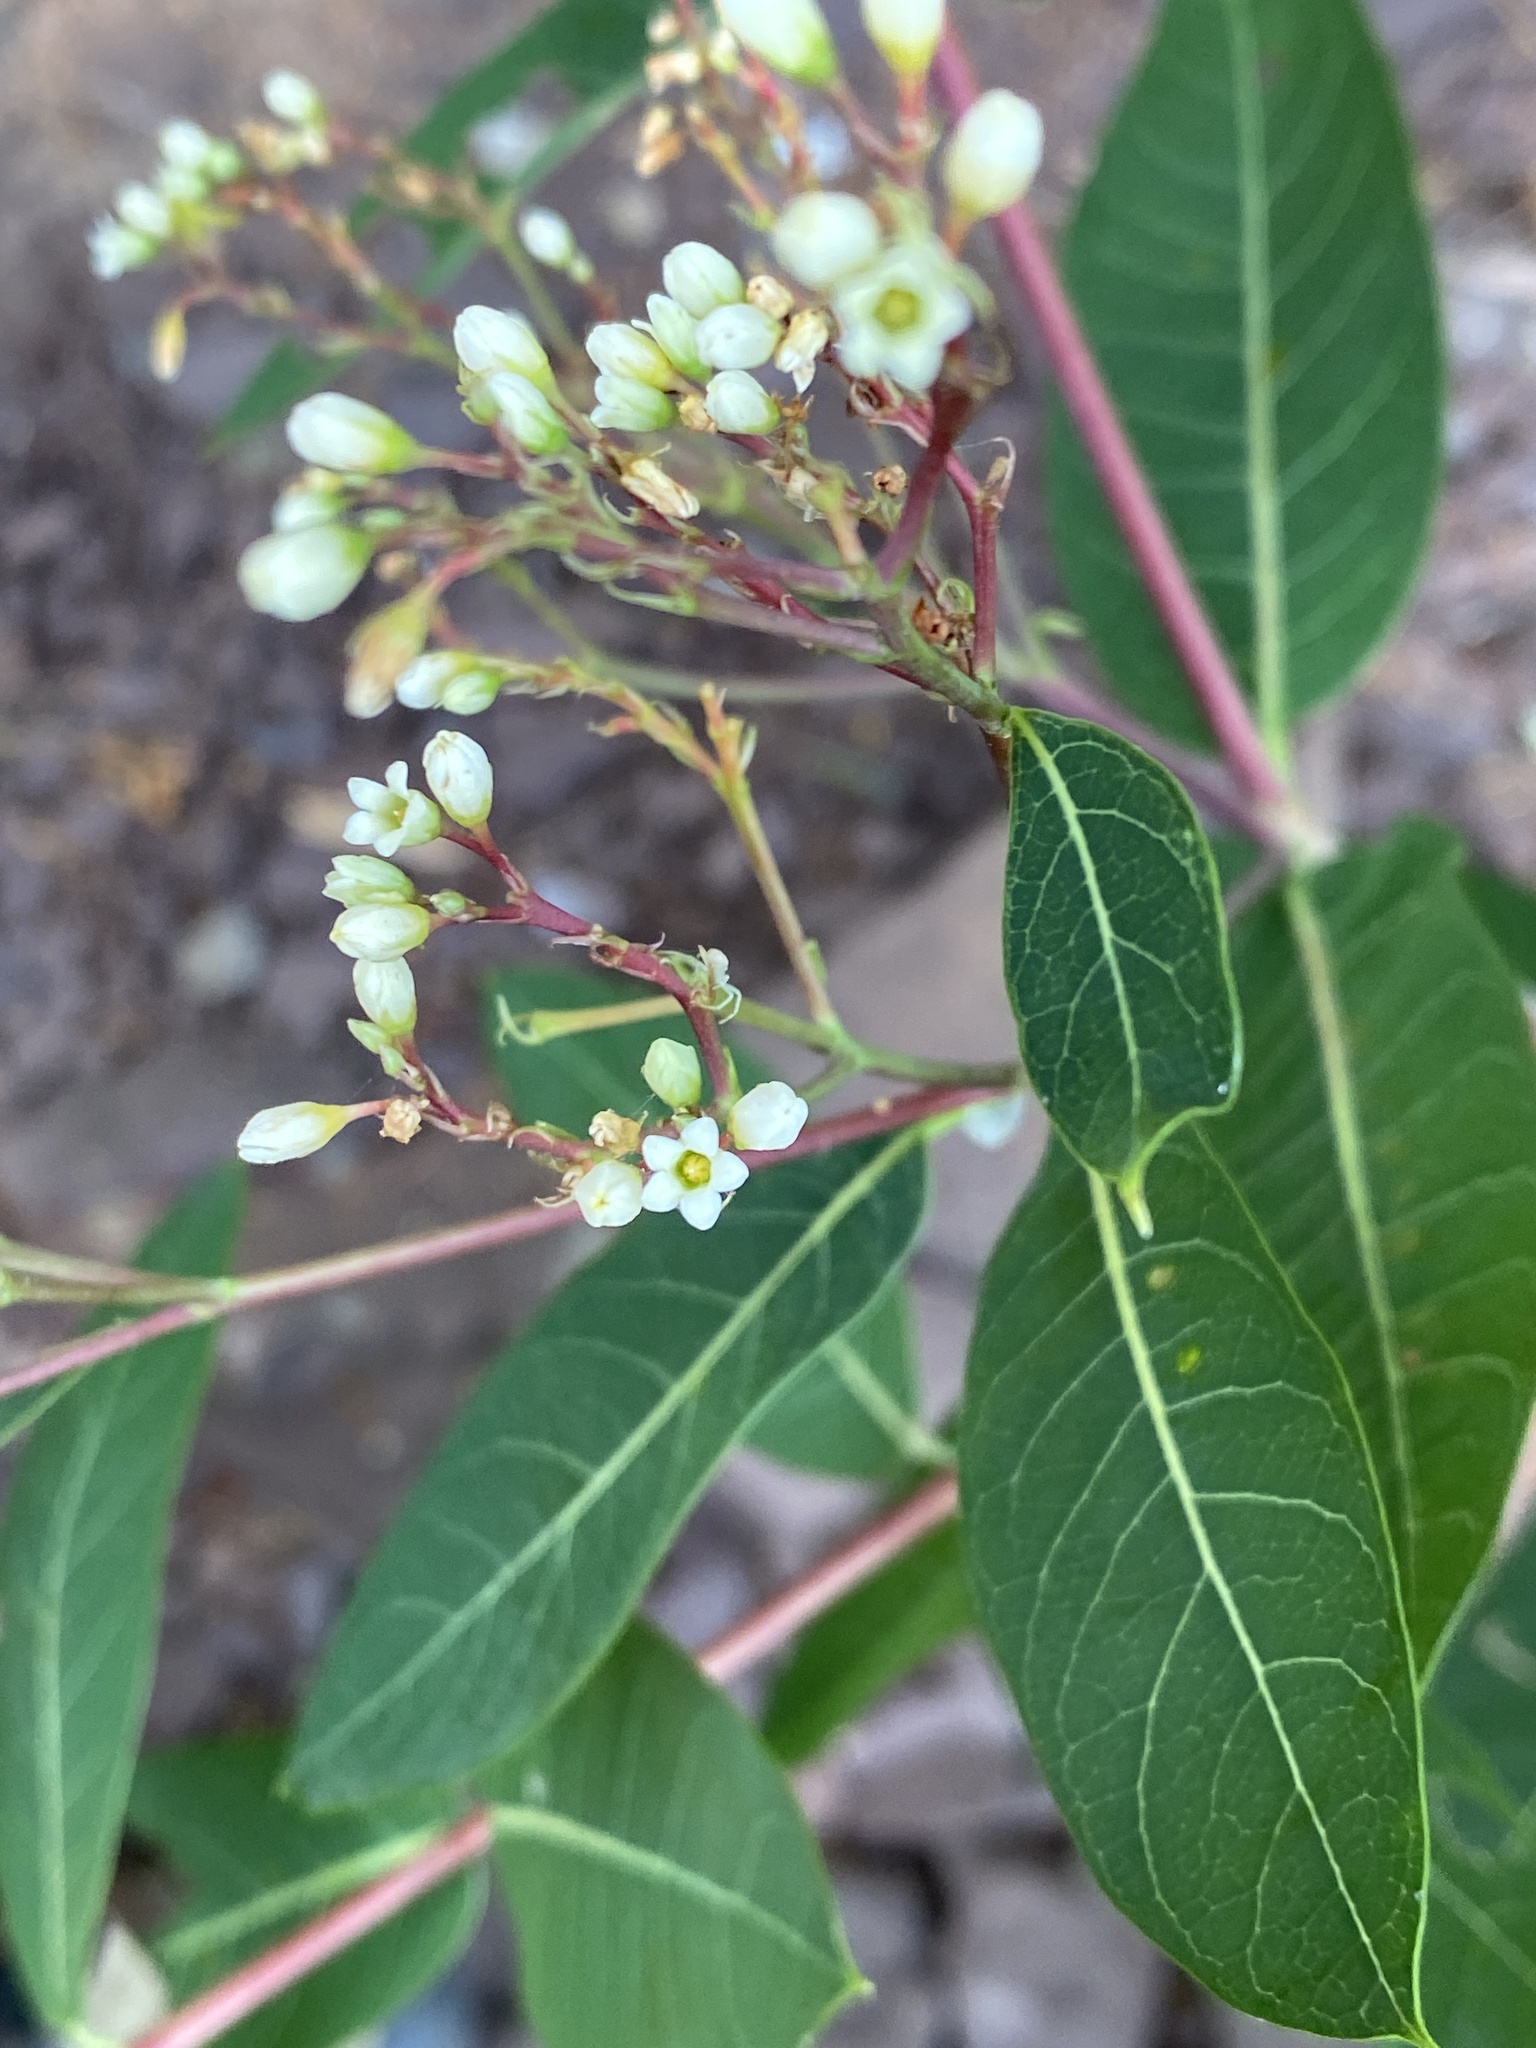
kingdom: Plantae
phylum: Tracheophyta
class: Magnoliopsida
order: Gentianales
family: Apocynaceae
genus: Apocynum
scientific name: Apocynum cannabinum
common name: Hemp dogbane
